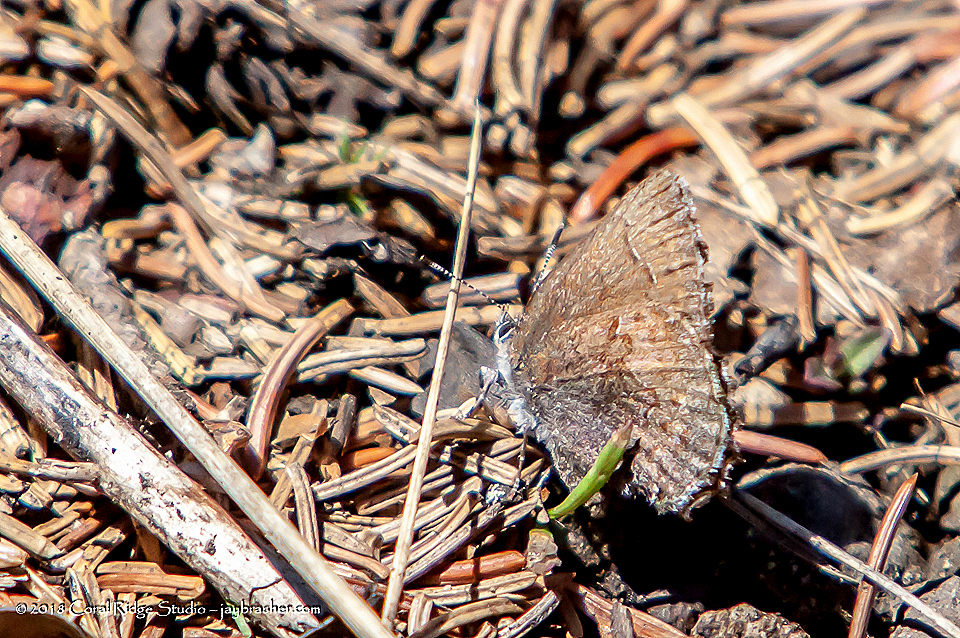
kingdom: Animalia
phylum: Arthropoda
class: Insecta
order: Lepidoptera
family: Lycaenidae
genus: Callophrys
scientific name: Callophrys polios
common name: Hoary elfin
